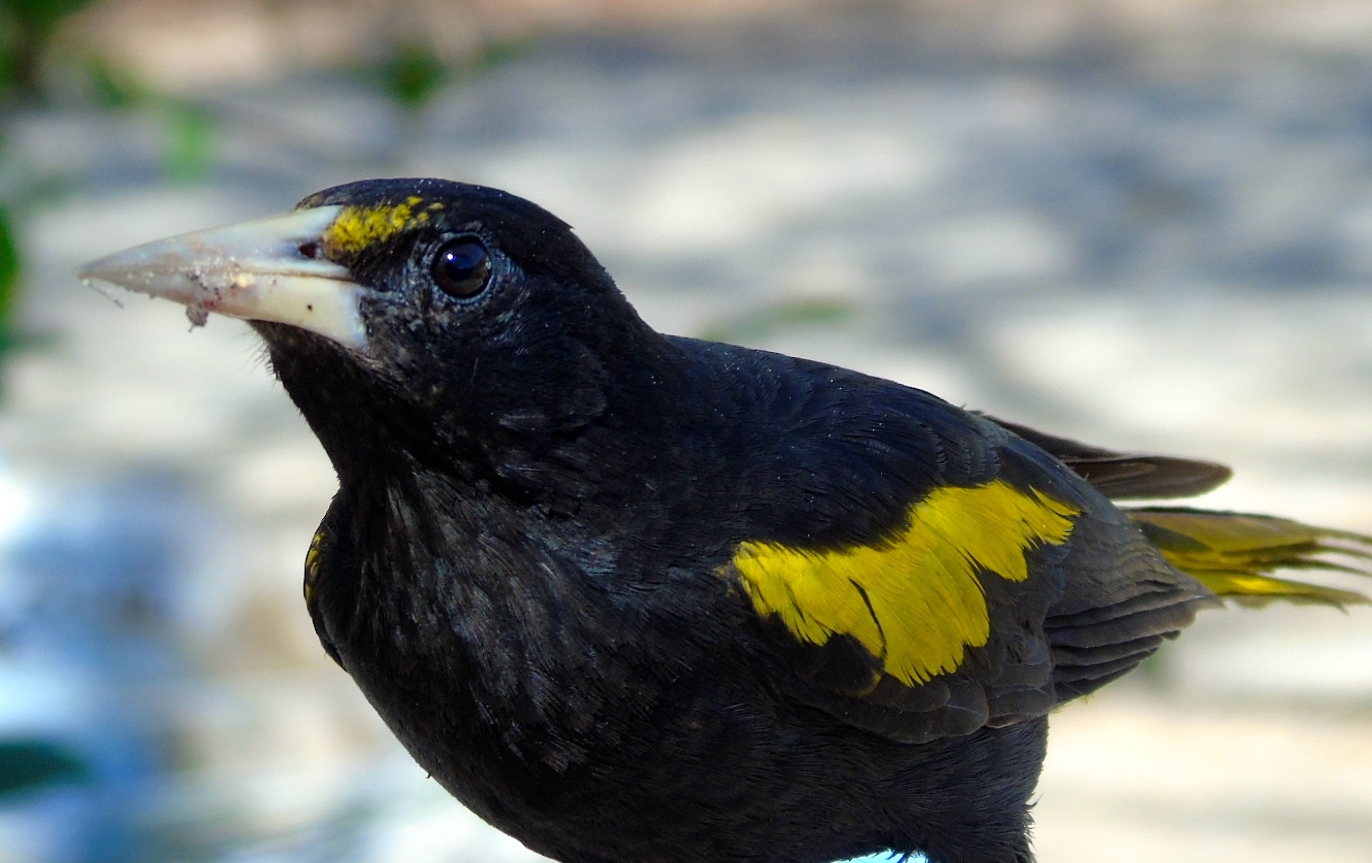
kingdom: Animalia
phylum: Chordata
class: Aves
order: Passeriformes
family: Icteridae
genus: Cacicus
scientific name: Cacicus melanicterus
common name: Yellow-winged cacique
